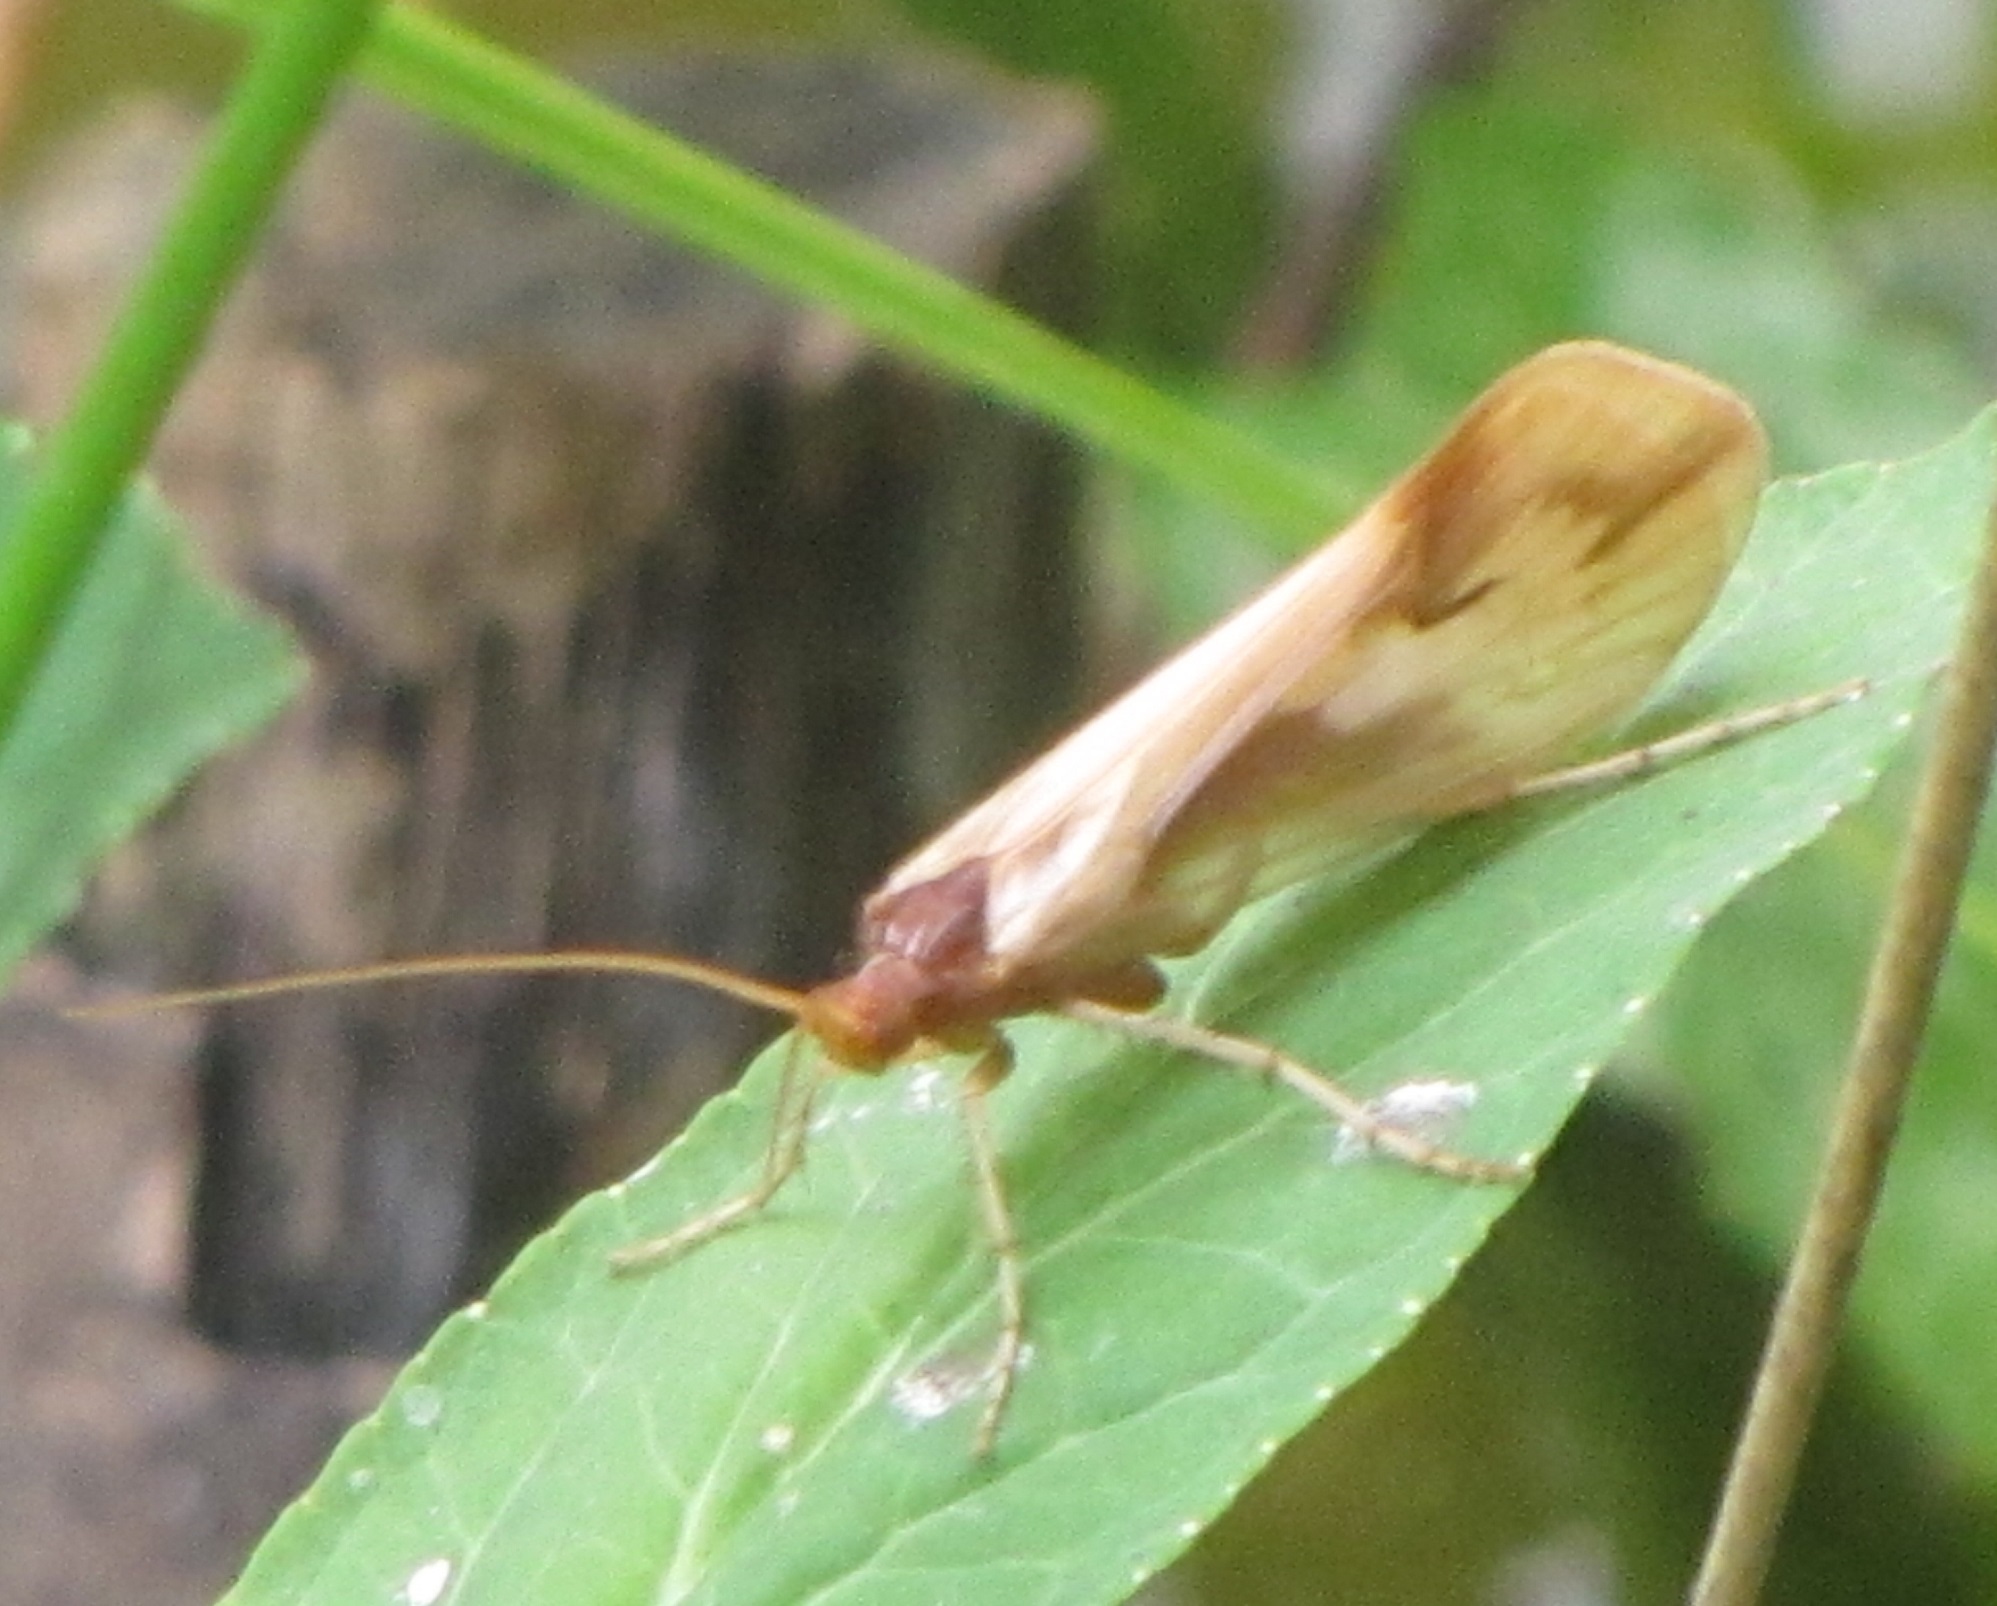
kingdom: Animalia
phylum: Arthropoda
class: Insecta
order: Trichoptera
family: Limnephilidae
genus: Platycentropus
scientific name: Platycentropus radiatus
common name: Chocolate-and-cream sedge
